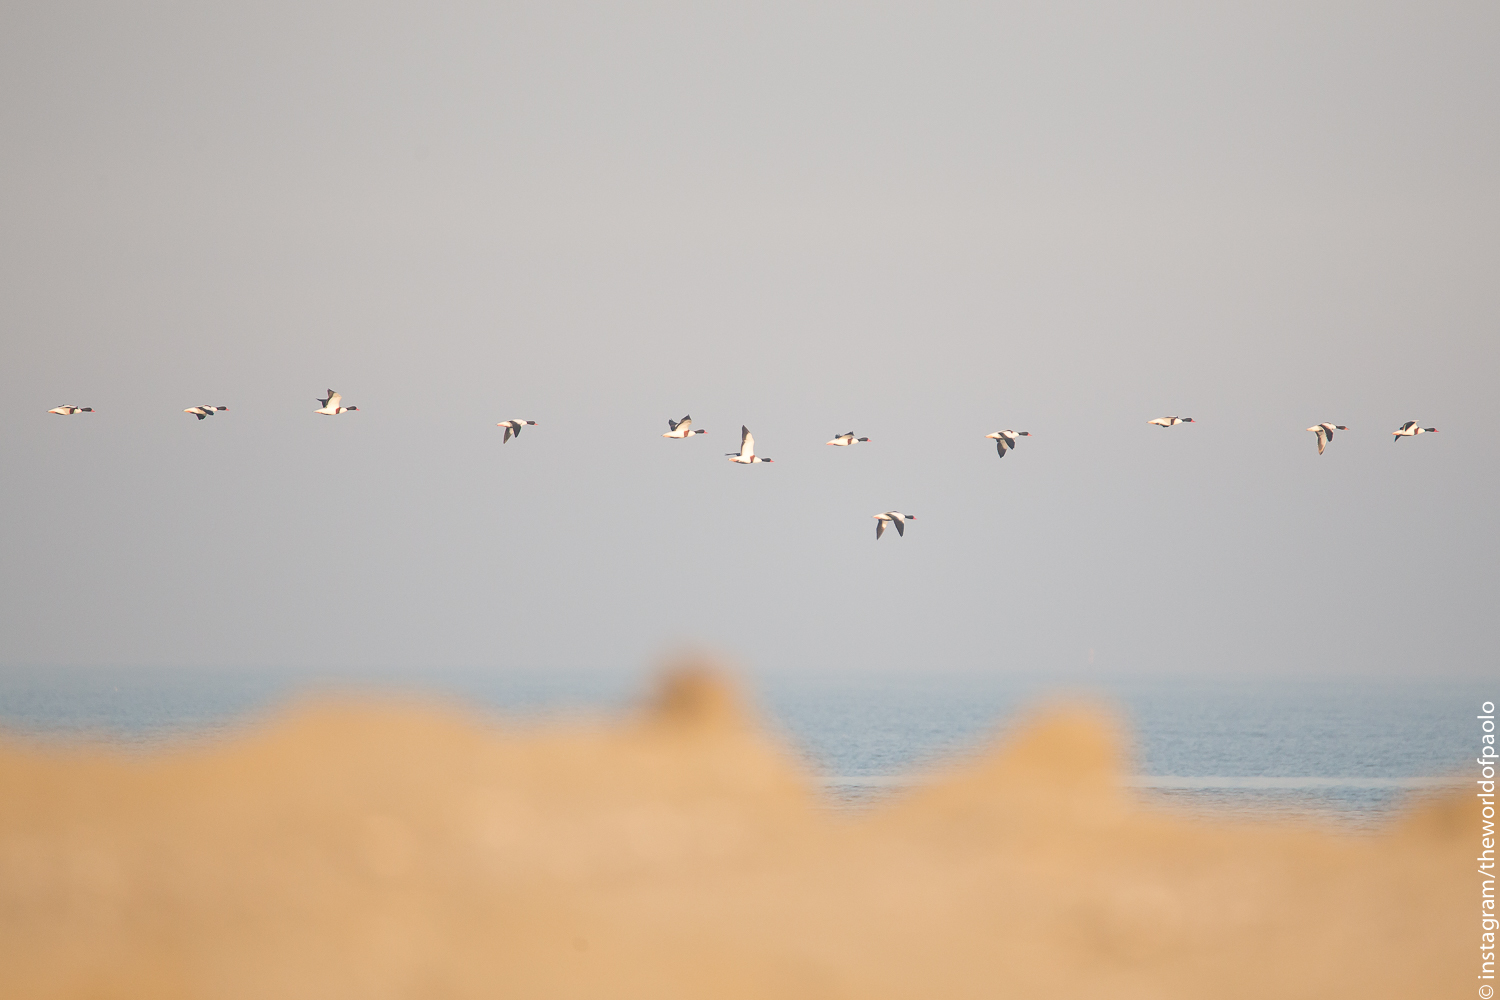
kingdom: Animalia
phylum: Chordata
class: Aves
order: Anseriformes
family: Anatidae
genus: Tadorna
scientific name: Tadorna tadorna
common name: Common shelduck
